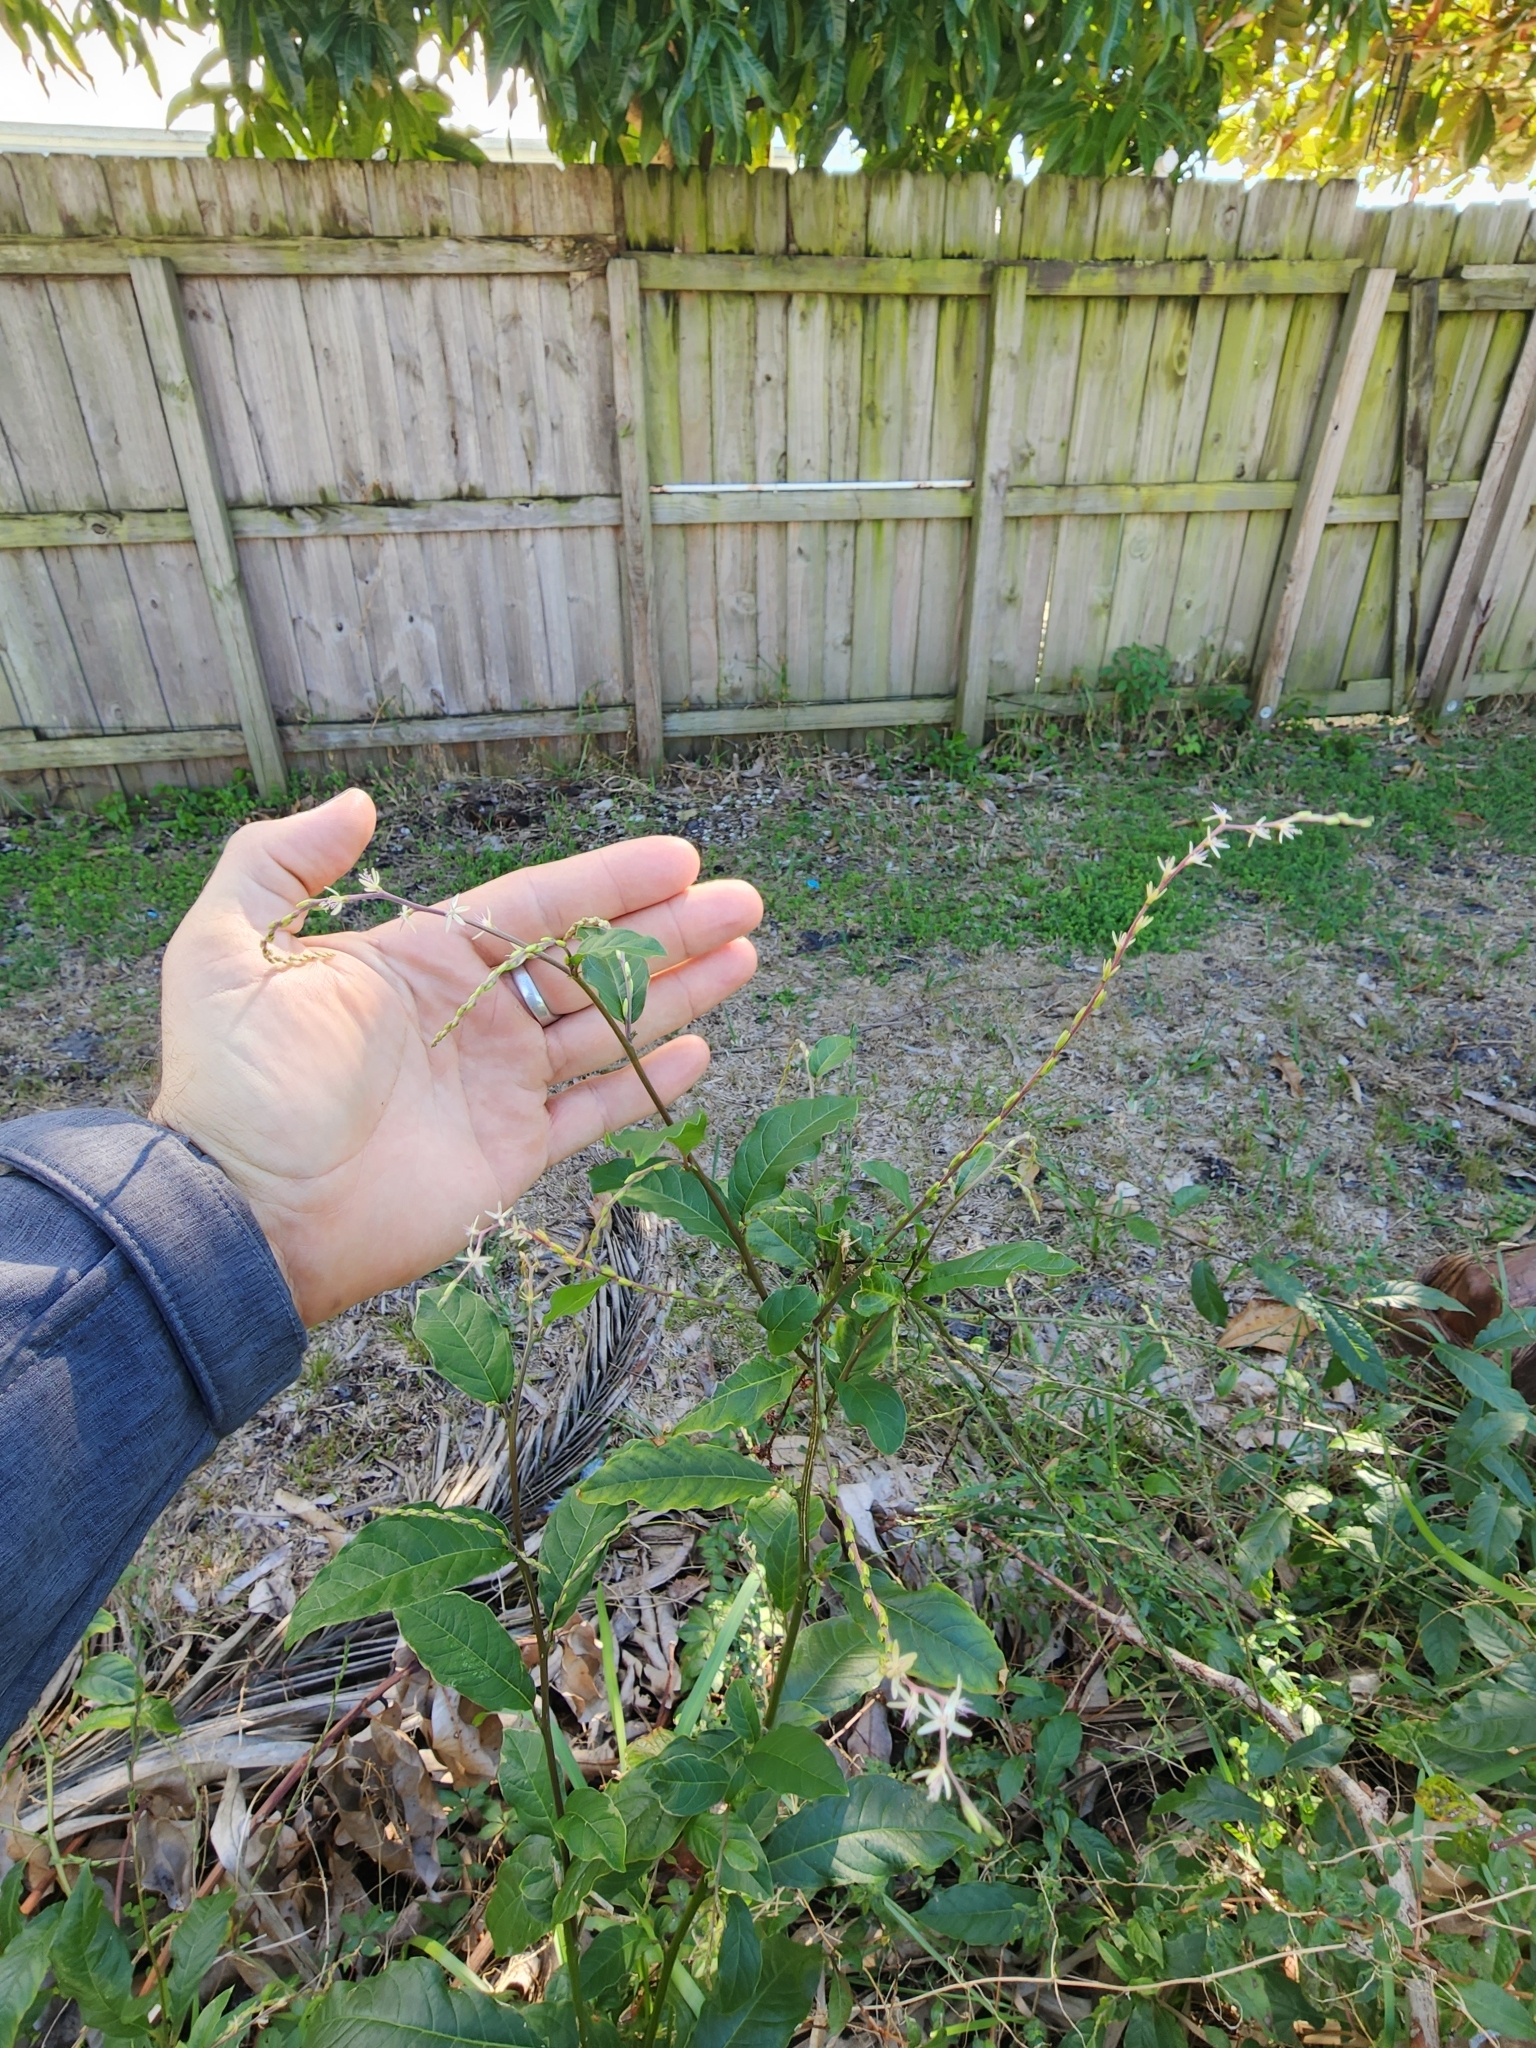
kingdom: Plantae
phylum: Tracheophyta
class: Magnoliopsida
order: Caryophyllales
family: Phytolaccaceae
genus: Petiveria
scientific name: Petiveria alliacea
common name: Garlicweed
